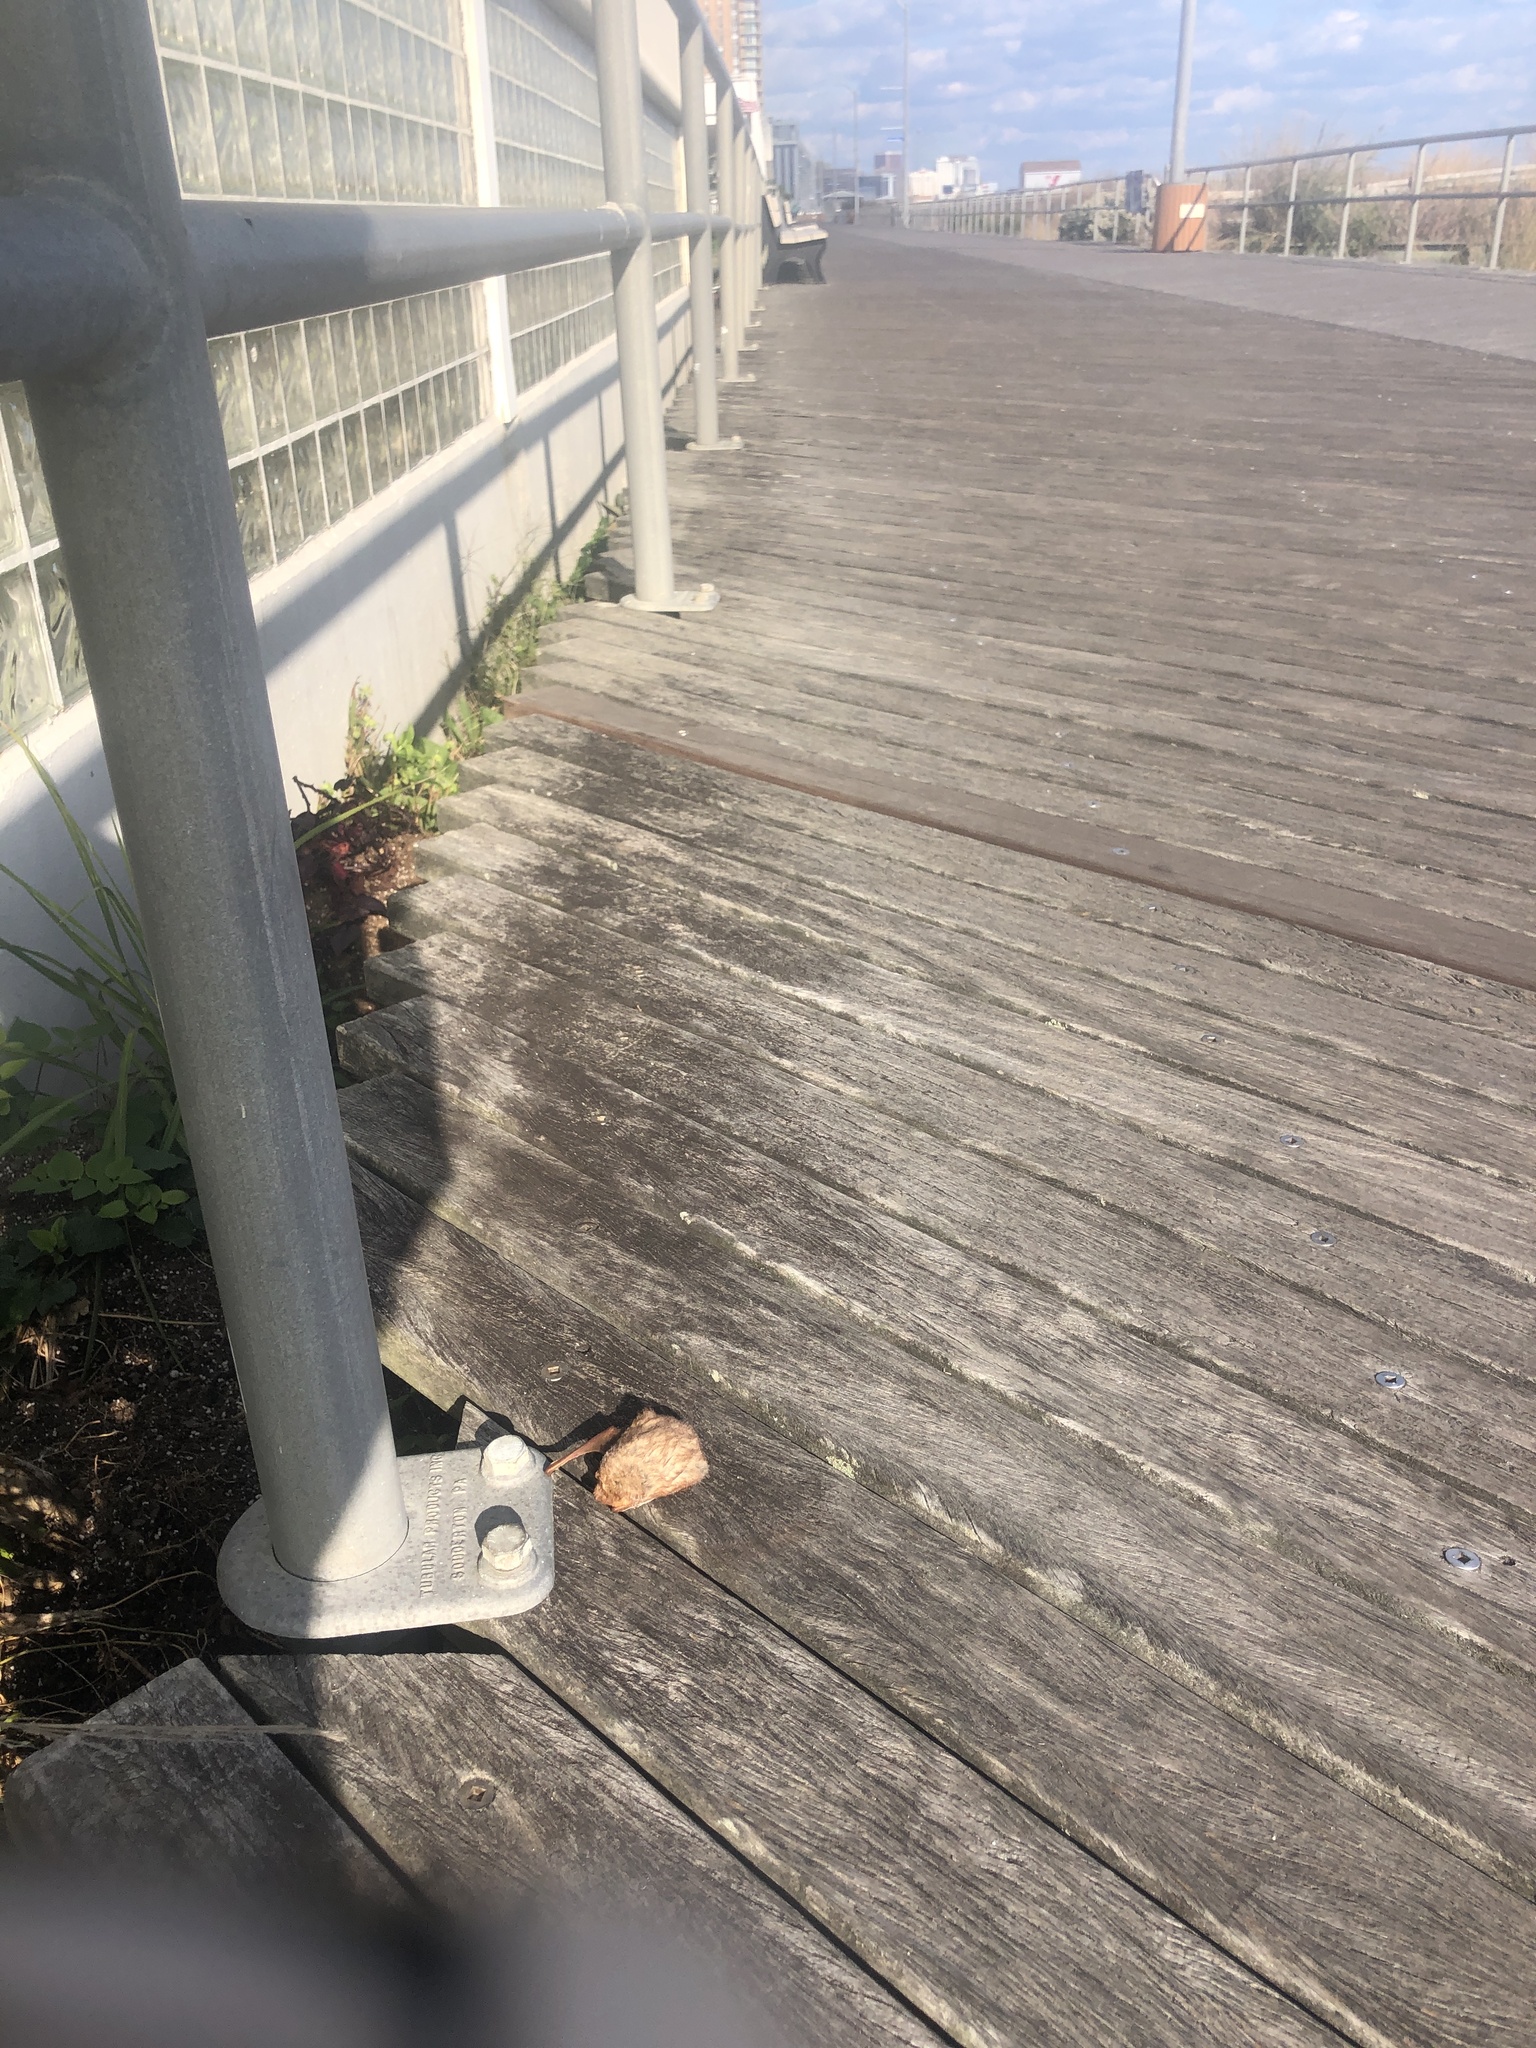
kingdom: Animalia
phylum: Chordata
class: Mammalia
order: Chiroptera
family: Vespertilionidae
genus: Lasiurus
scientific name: Lasiurus borealis
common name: Eastern red bat
